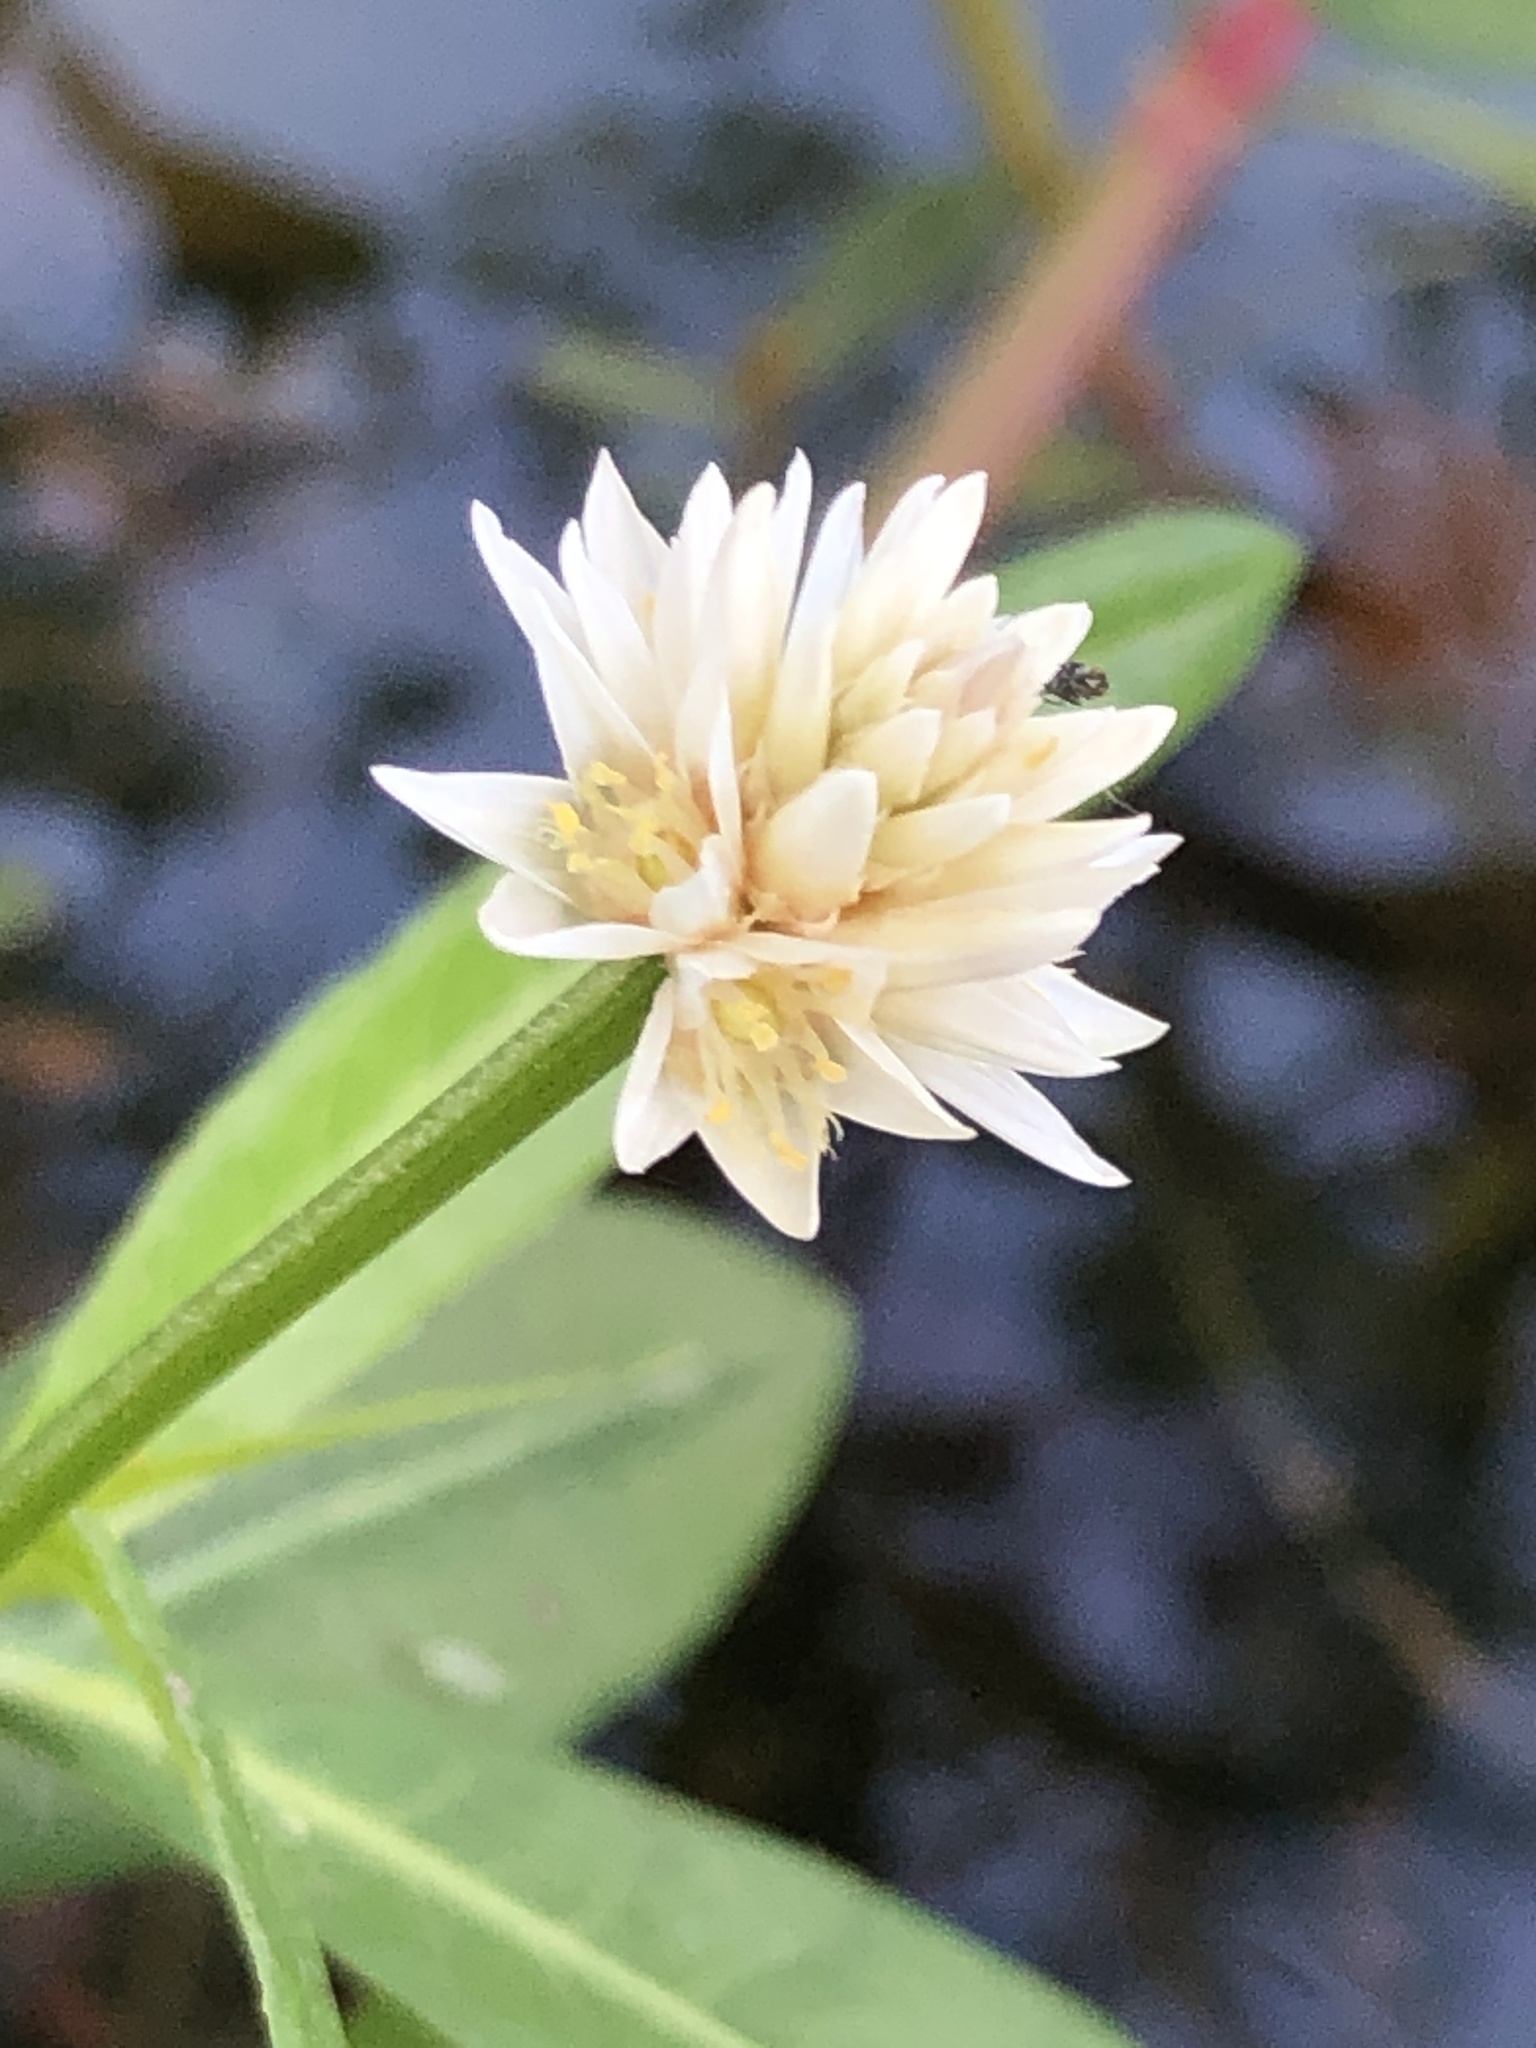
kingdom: Plantae
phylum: Tracheophyta
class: Magnoliopsida
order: Caryophyllales
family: Amaranthaceae
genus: Alternanthera
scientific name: Alternanthera philoxeroides
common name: Alligatorweed
